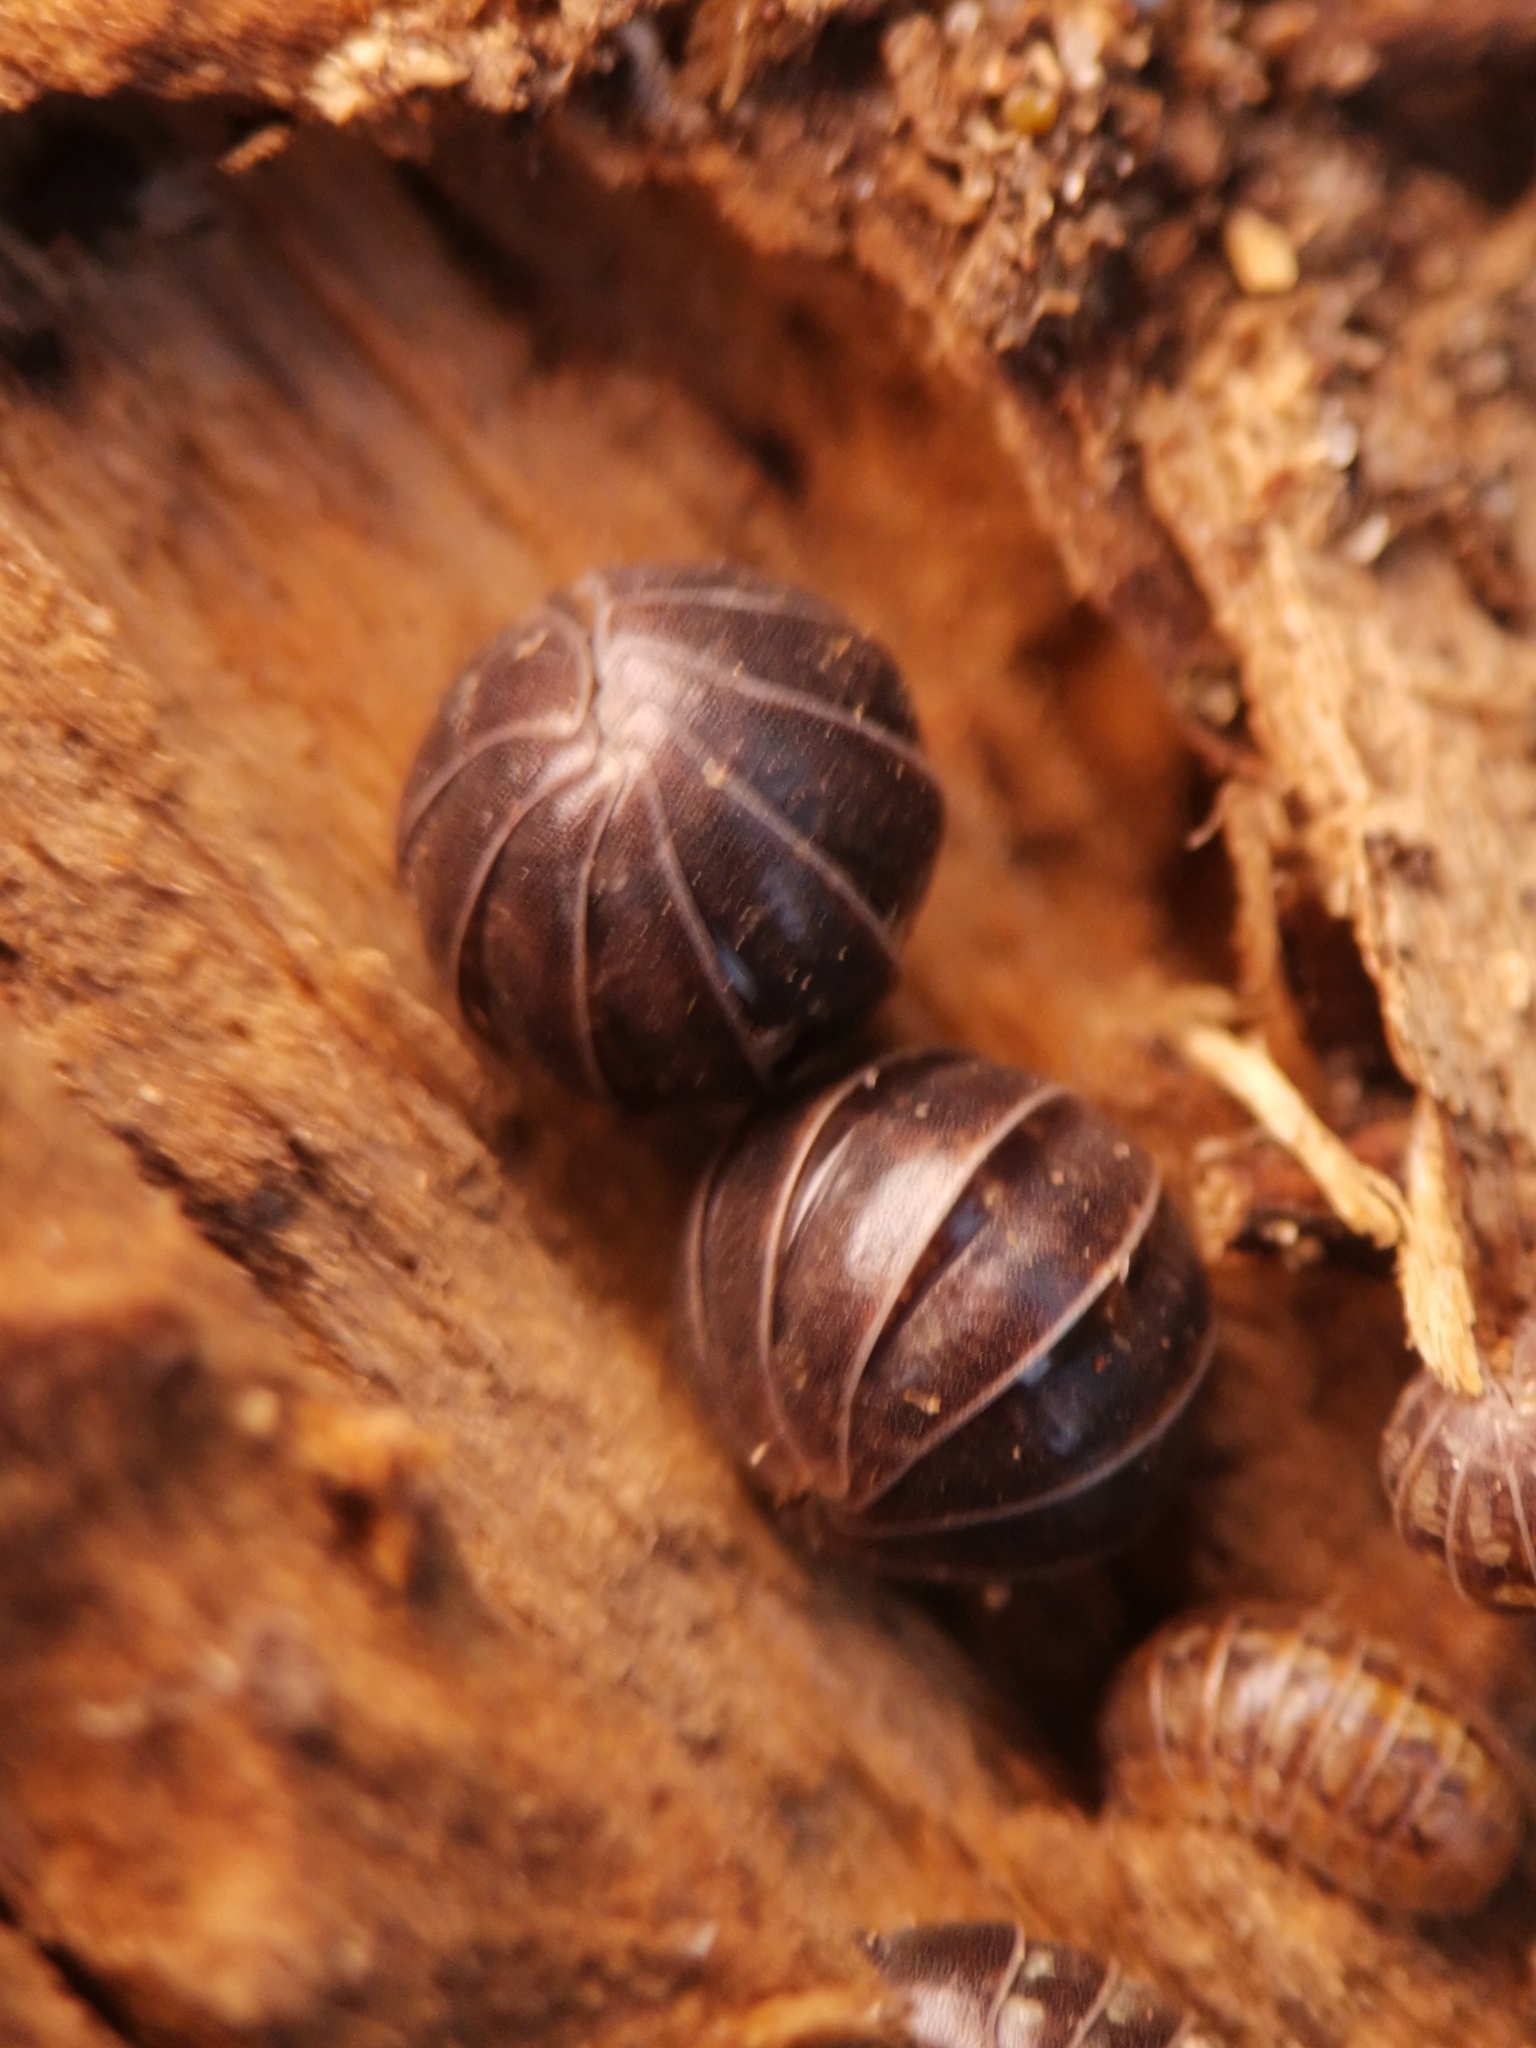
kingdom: Animalia
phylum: Arthropoda
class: Malacostraca
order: Isopoda
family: Armadillidiidae
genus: Armadillidium
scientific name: Armadillidium vulgare
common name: Common pill woodlouse
